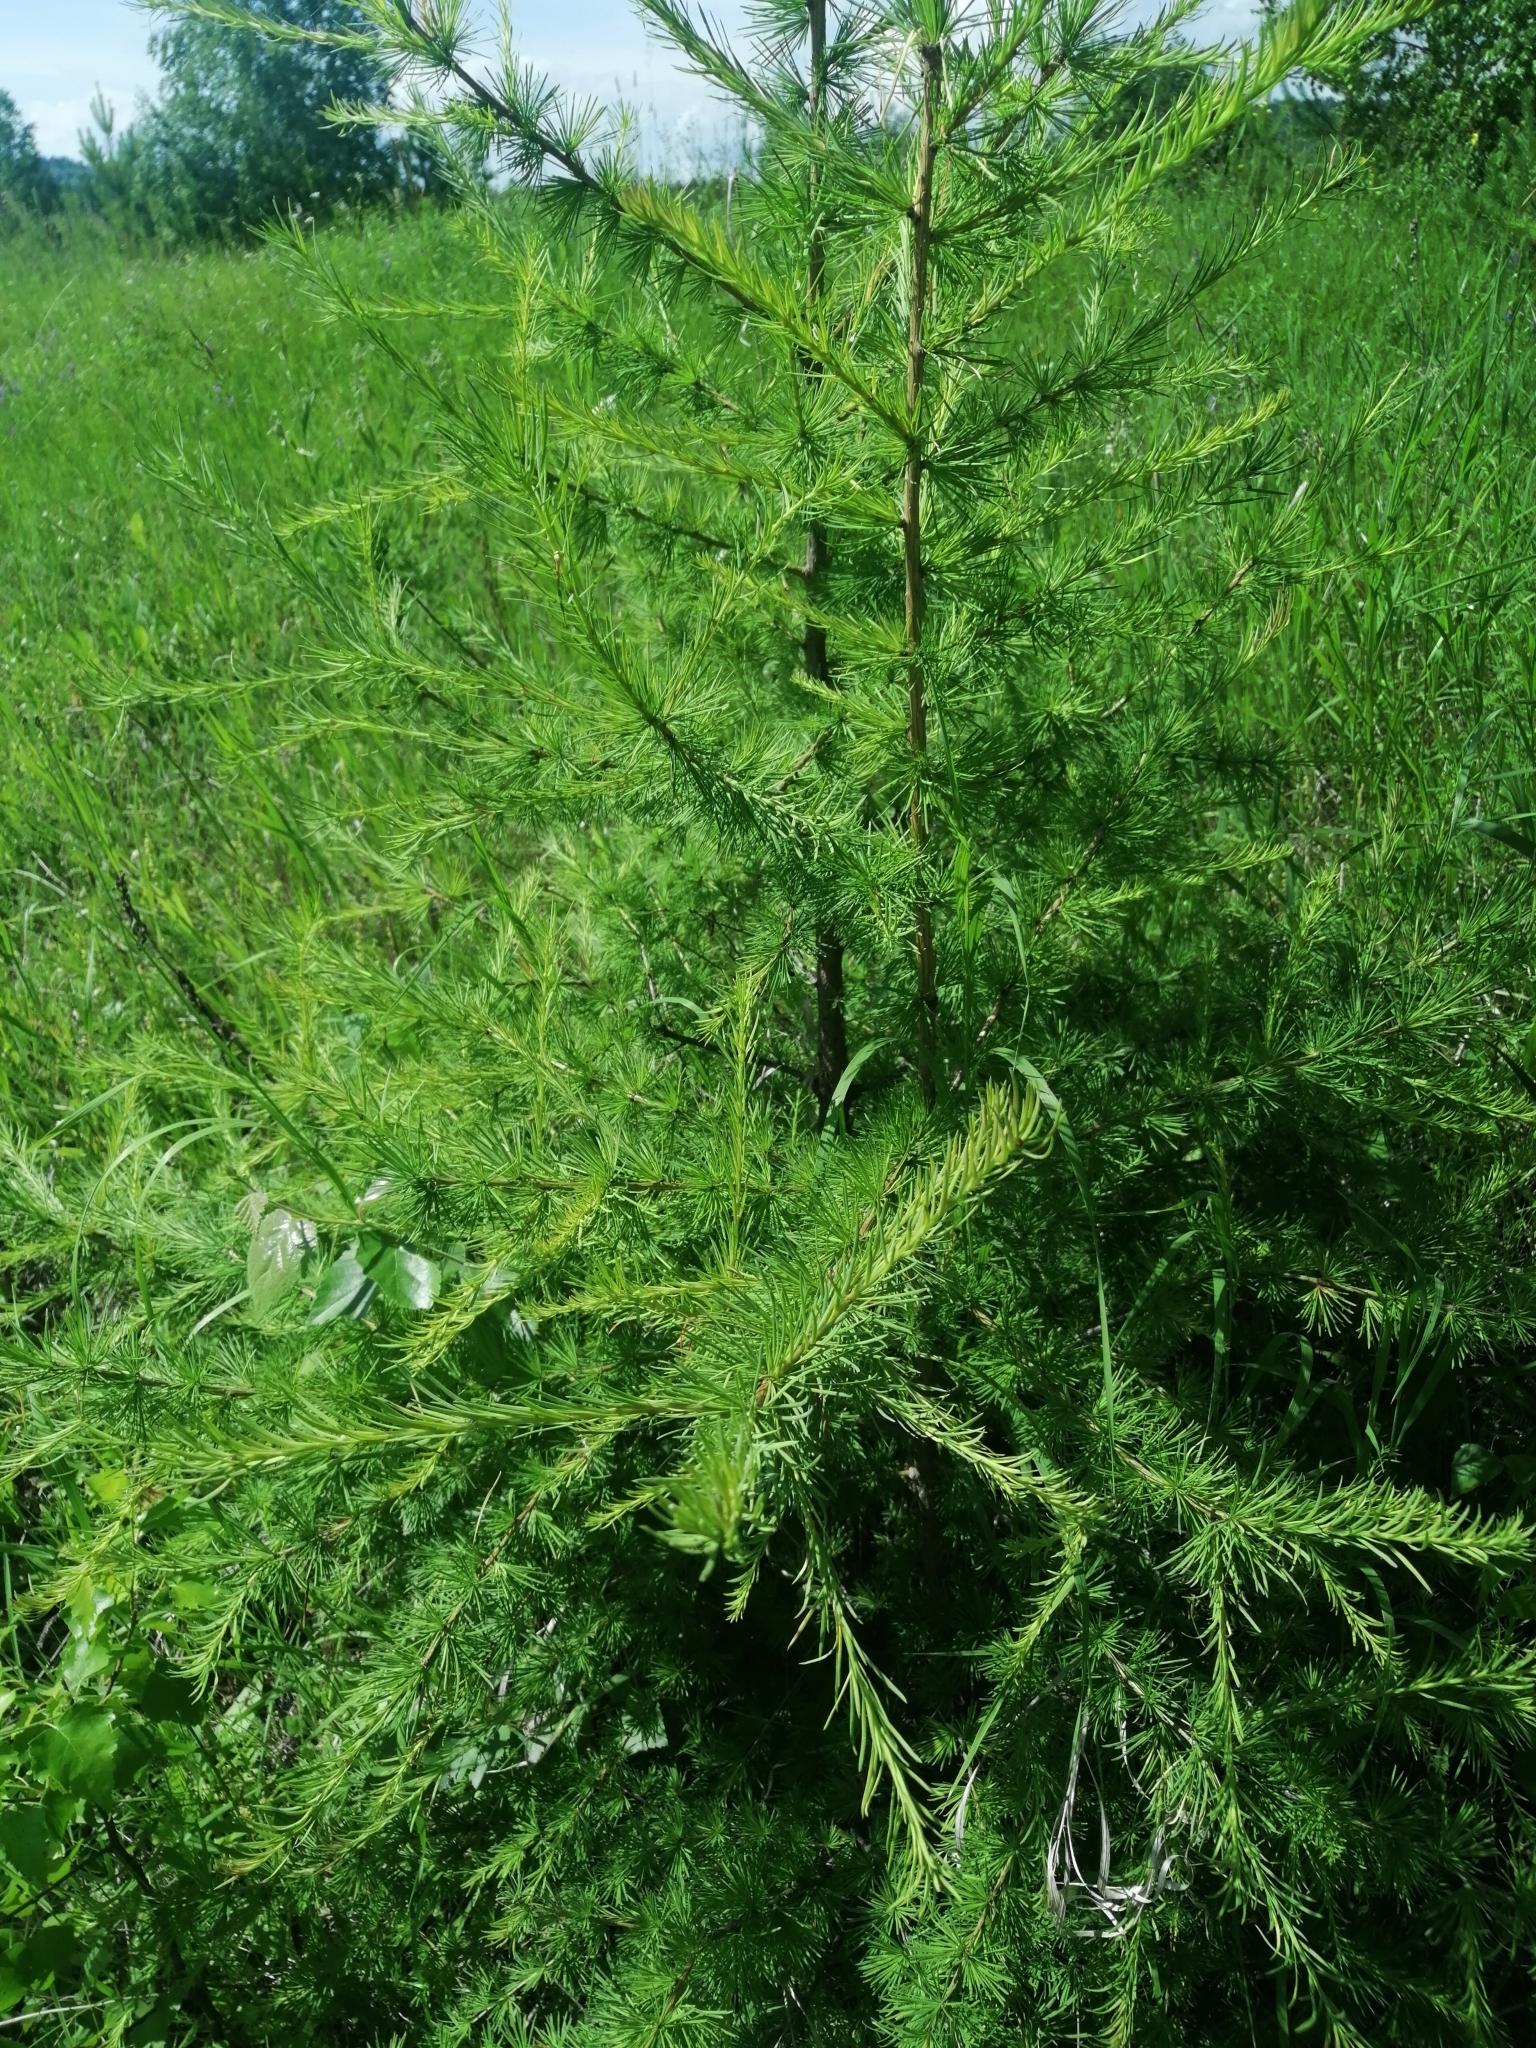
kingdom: Plantae
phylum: Tracheophyta
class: Pinopsida
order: Pinales
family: Pinaceae
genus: Larix
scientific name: Larix sibirica
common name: Siberian larch
